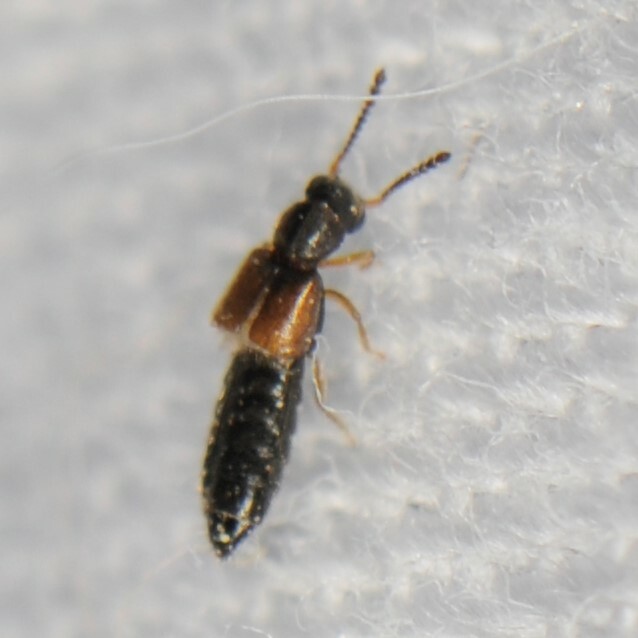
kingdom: Animalia
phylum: Arthropoda
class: Insecta
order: Coleoptera
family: Staphylinidae
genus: Carpelimus
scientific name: Carpelimus
